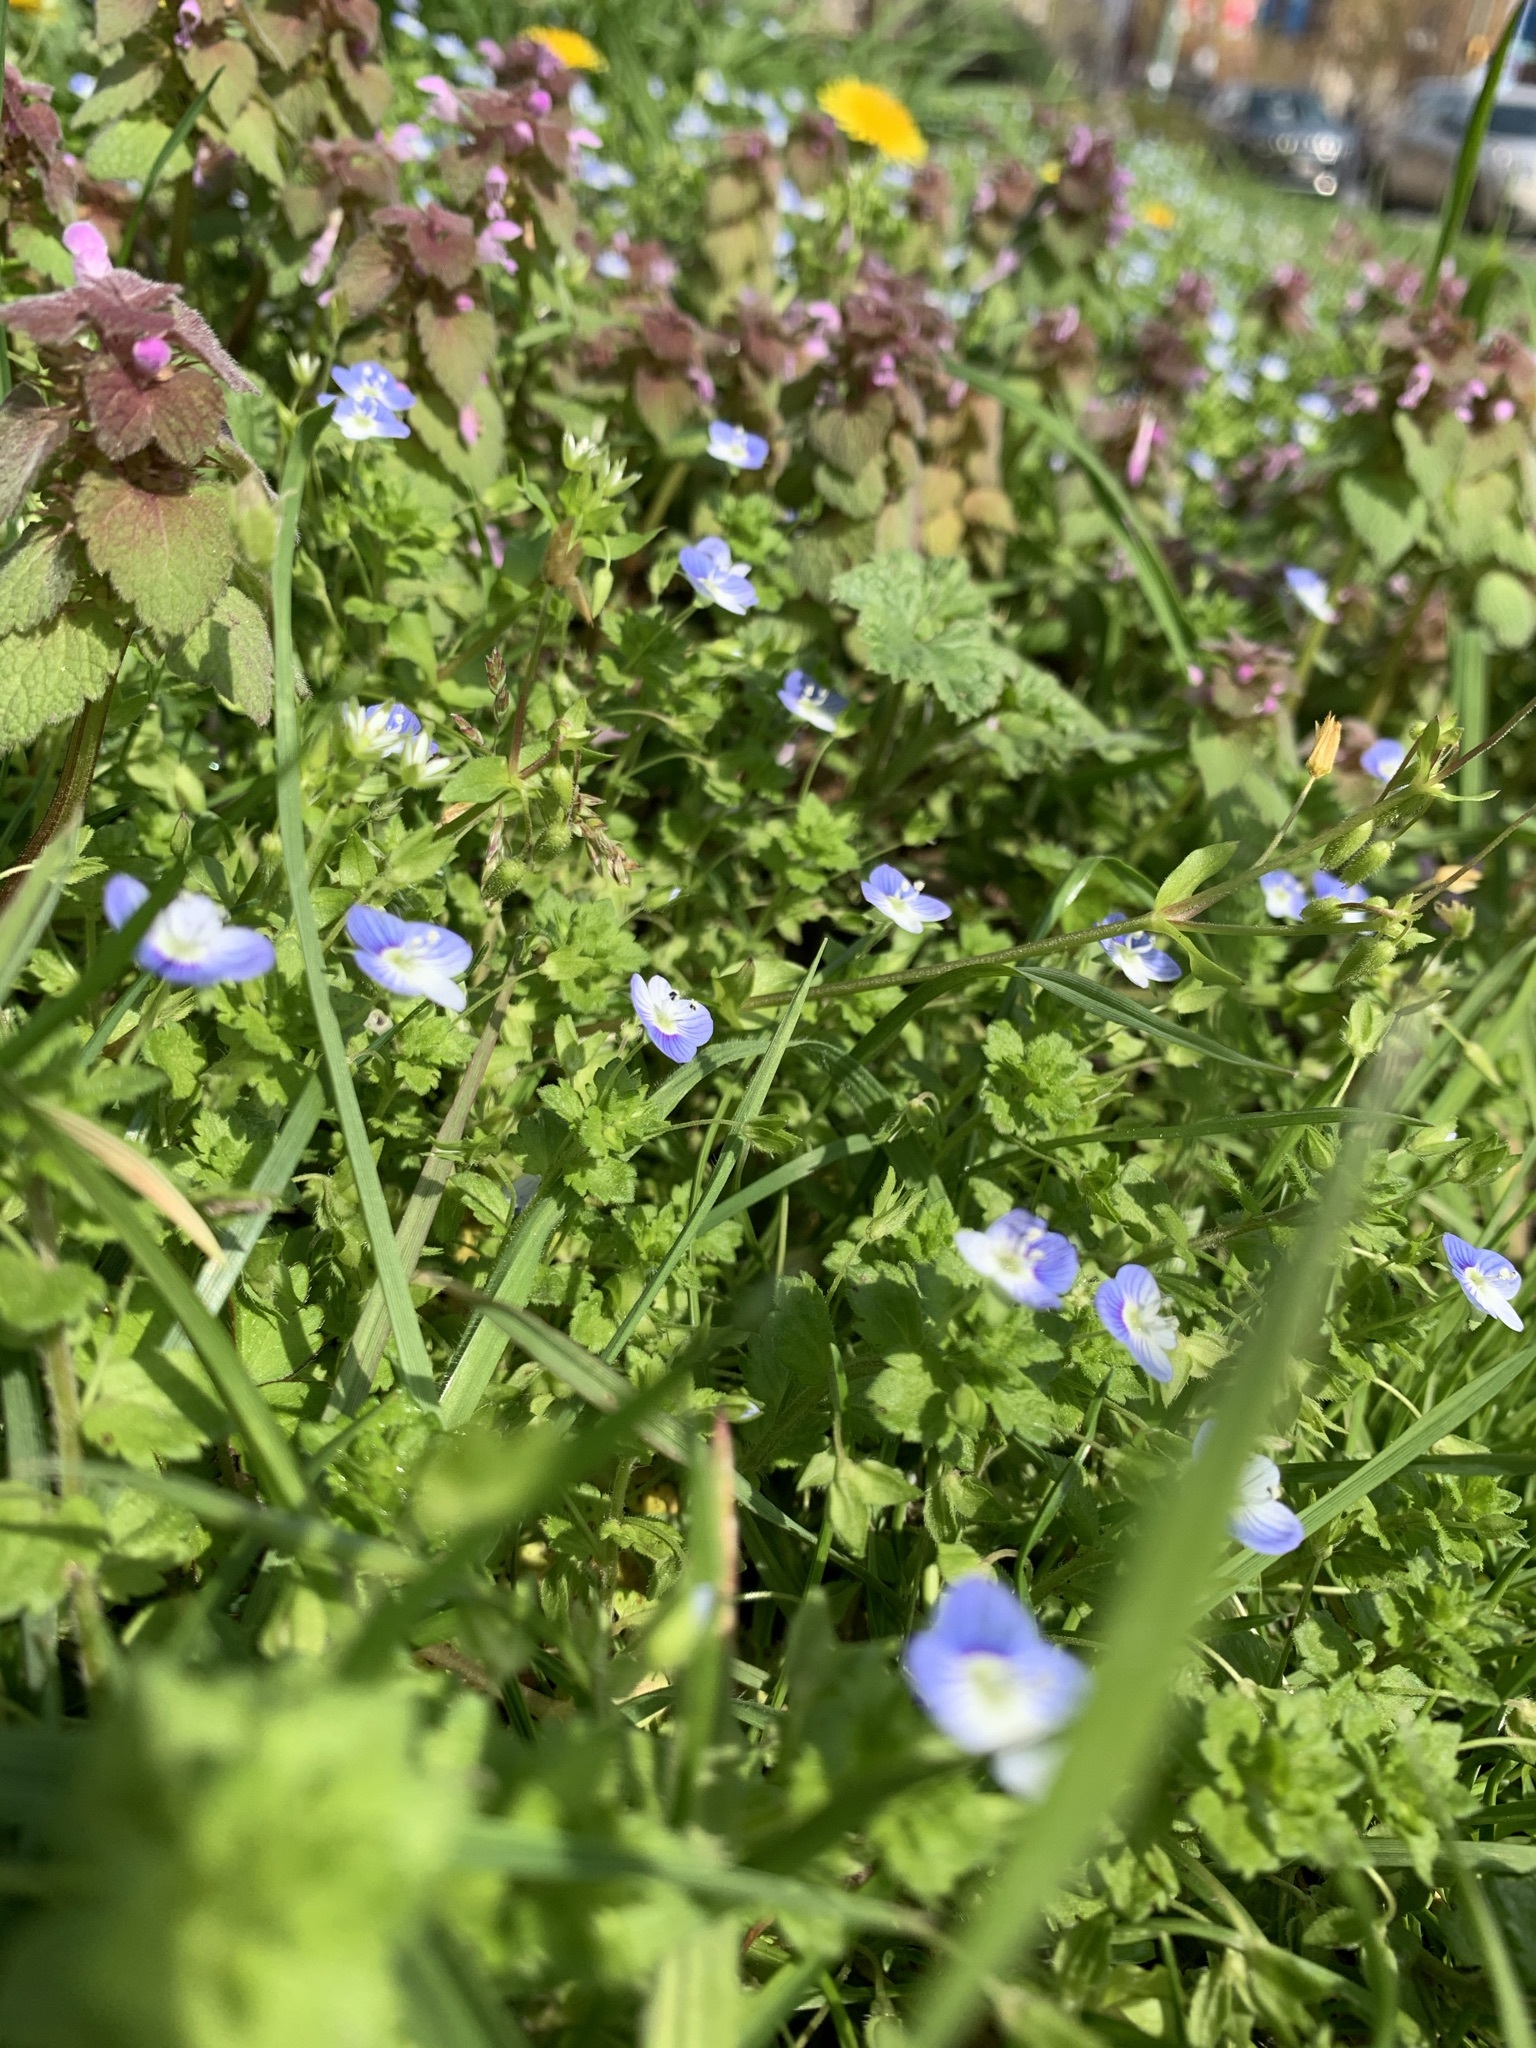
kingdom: Plantae
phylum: Tracheophyta
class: Magnoliopsida
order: Lamiales
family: Plantaginaceae
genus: Veronica
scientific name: Veronica persica
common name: Common field-speedwell
